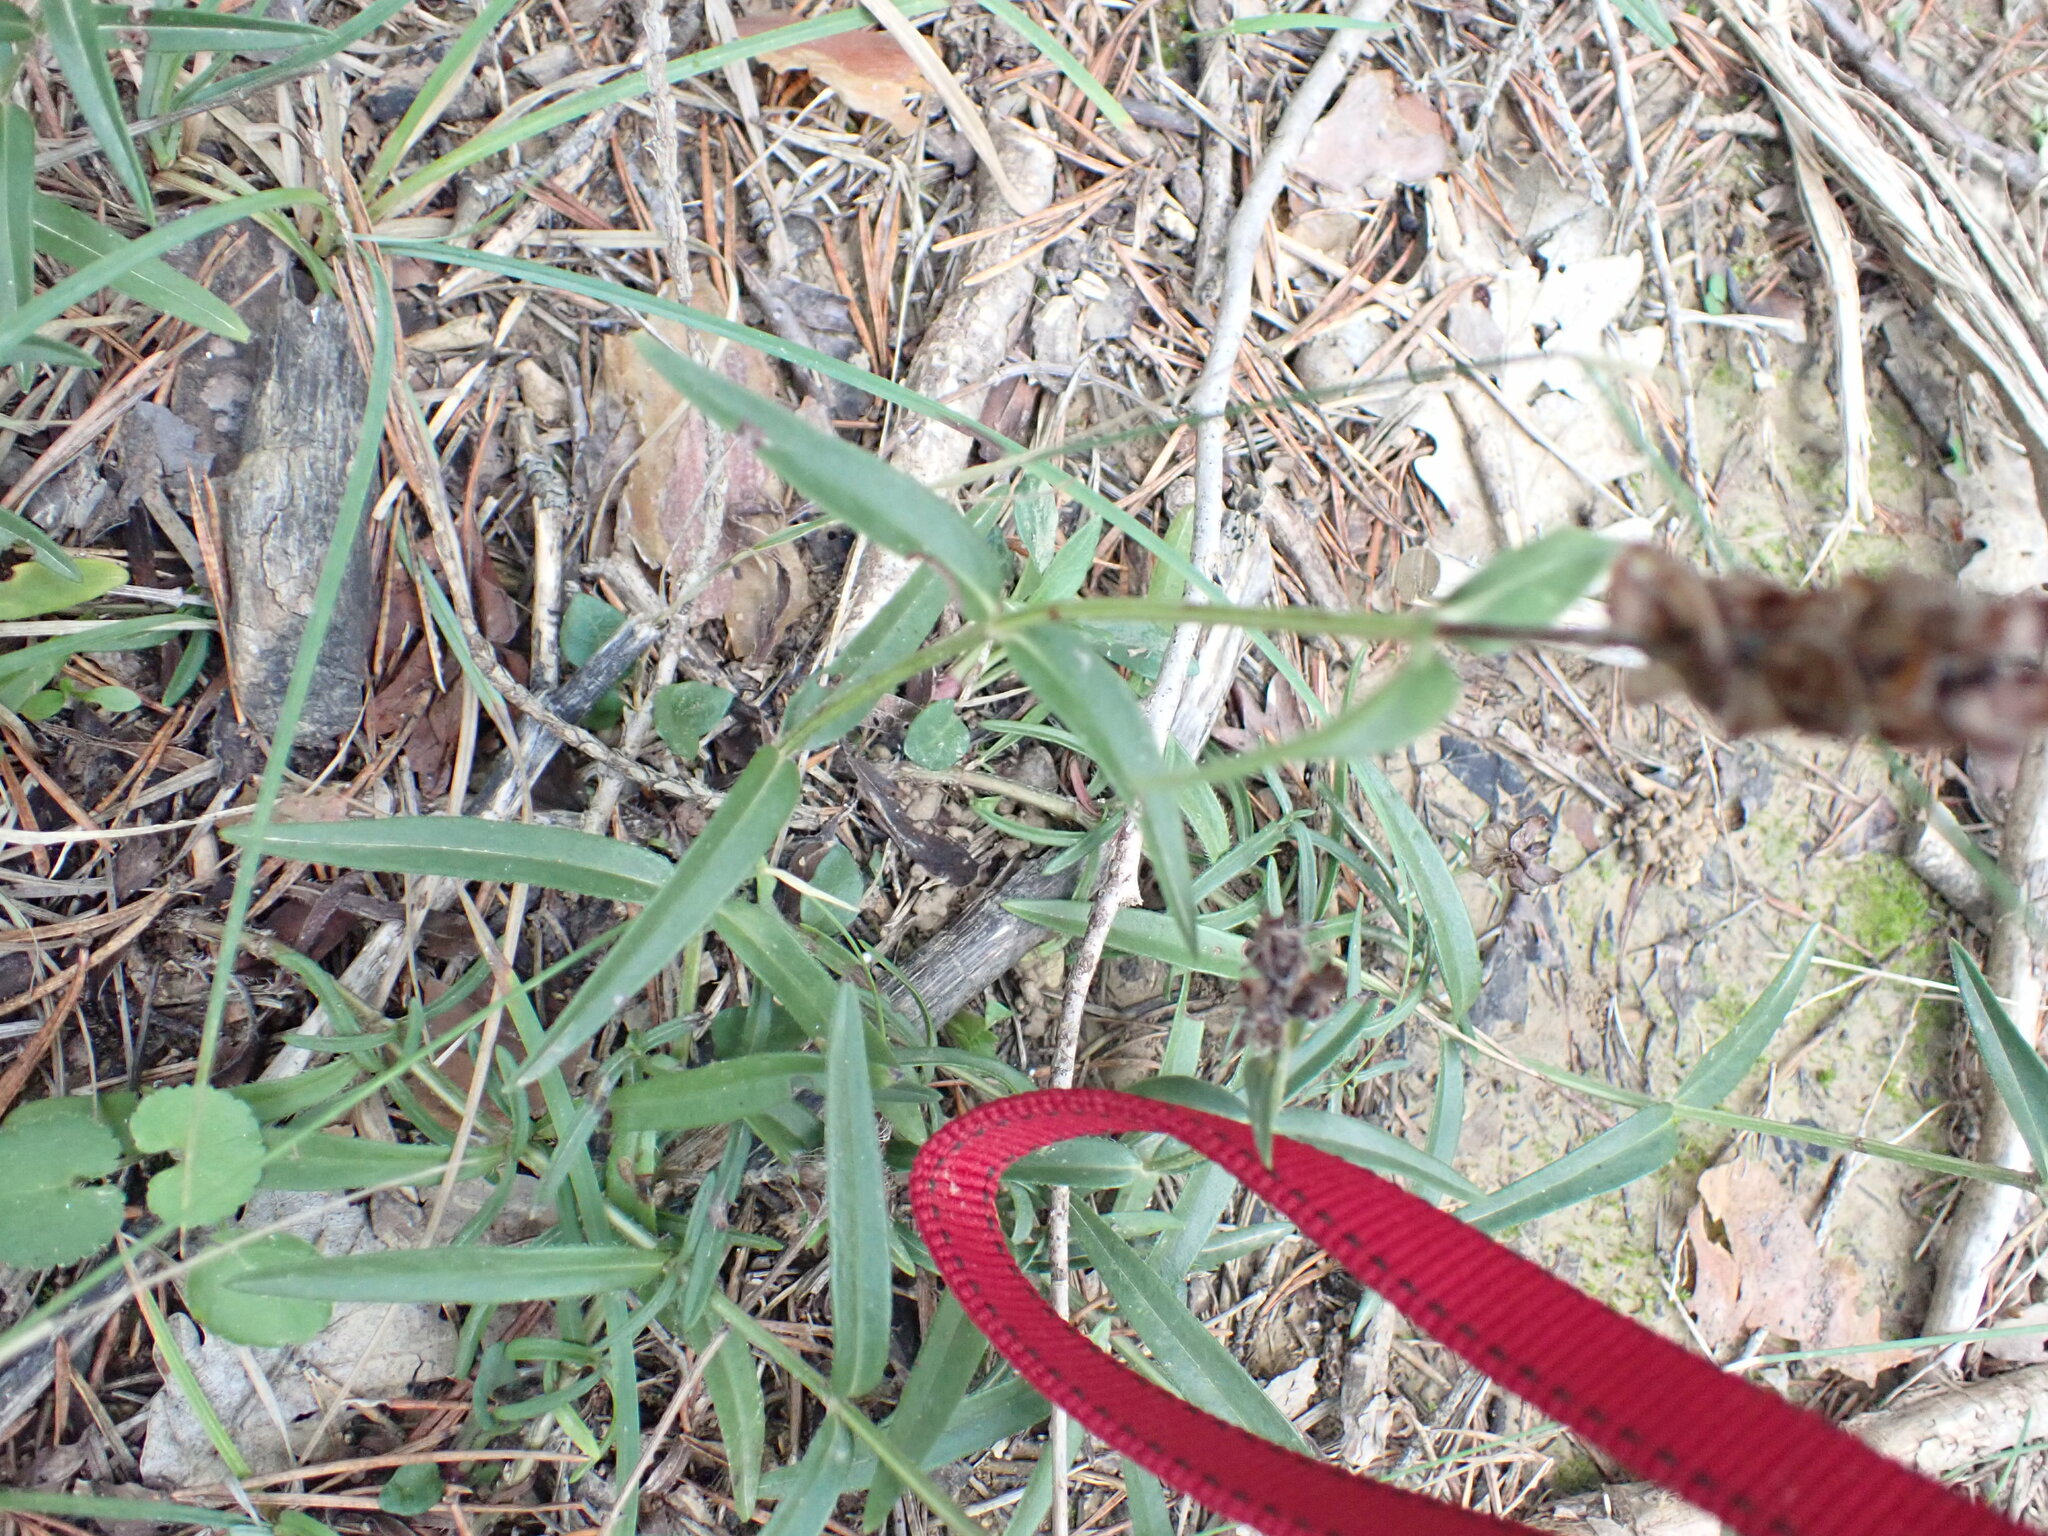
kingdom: Plantae
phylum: Tracheophyta
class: Magnoliopsida
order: Lamiales
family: Lamiaceae
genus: Prunella
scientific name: Prunella hyssopifolia
